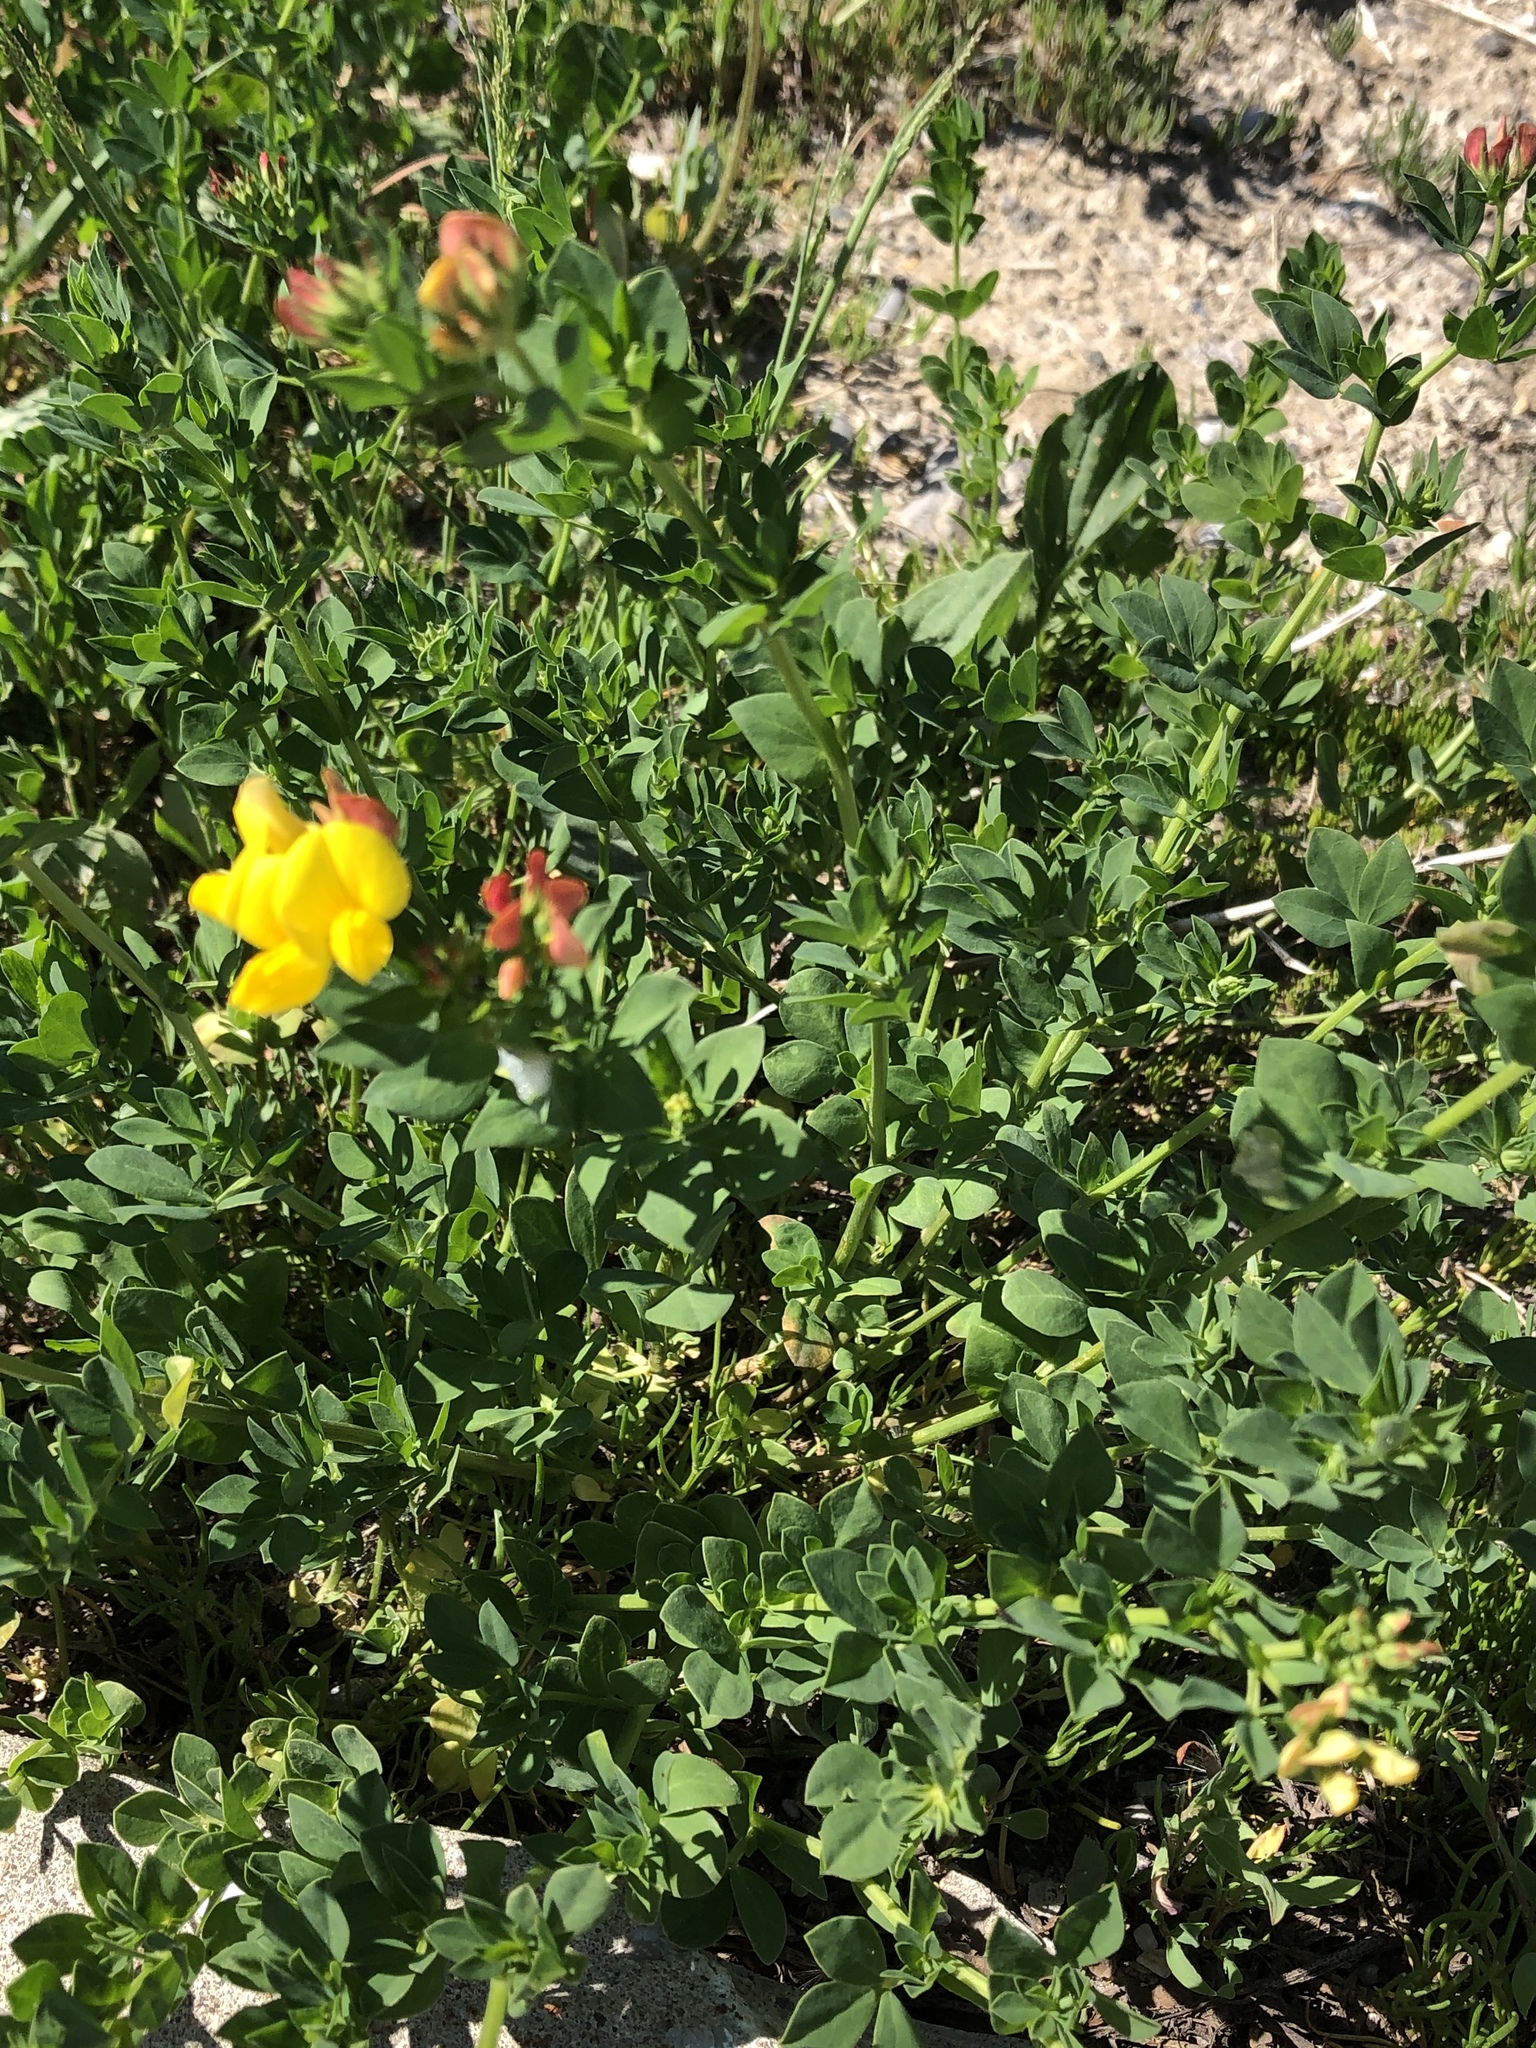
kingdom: Plantae
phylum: Tracheophyta
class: Magnoliopsida
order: Fabales
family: Fabaceae
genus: Lotus
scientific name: Lotus corniculatus
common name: Common bird's-foot-trefoil
